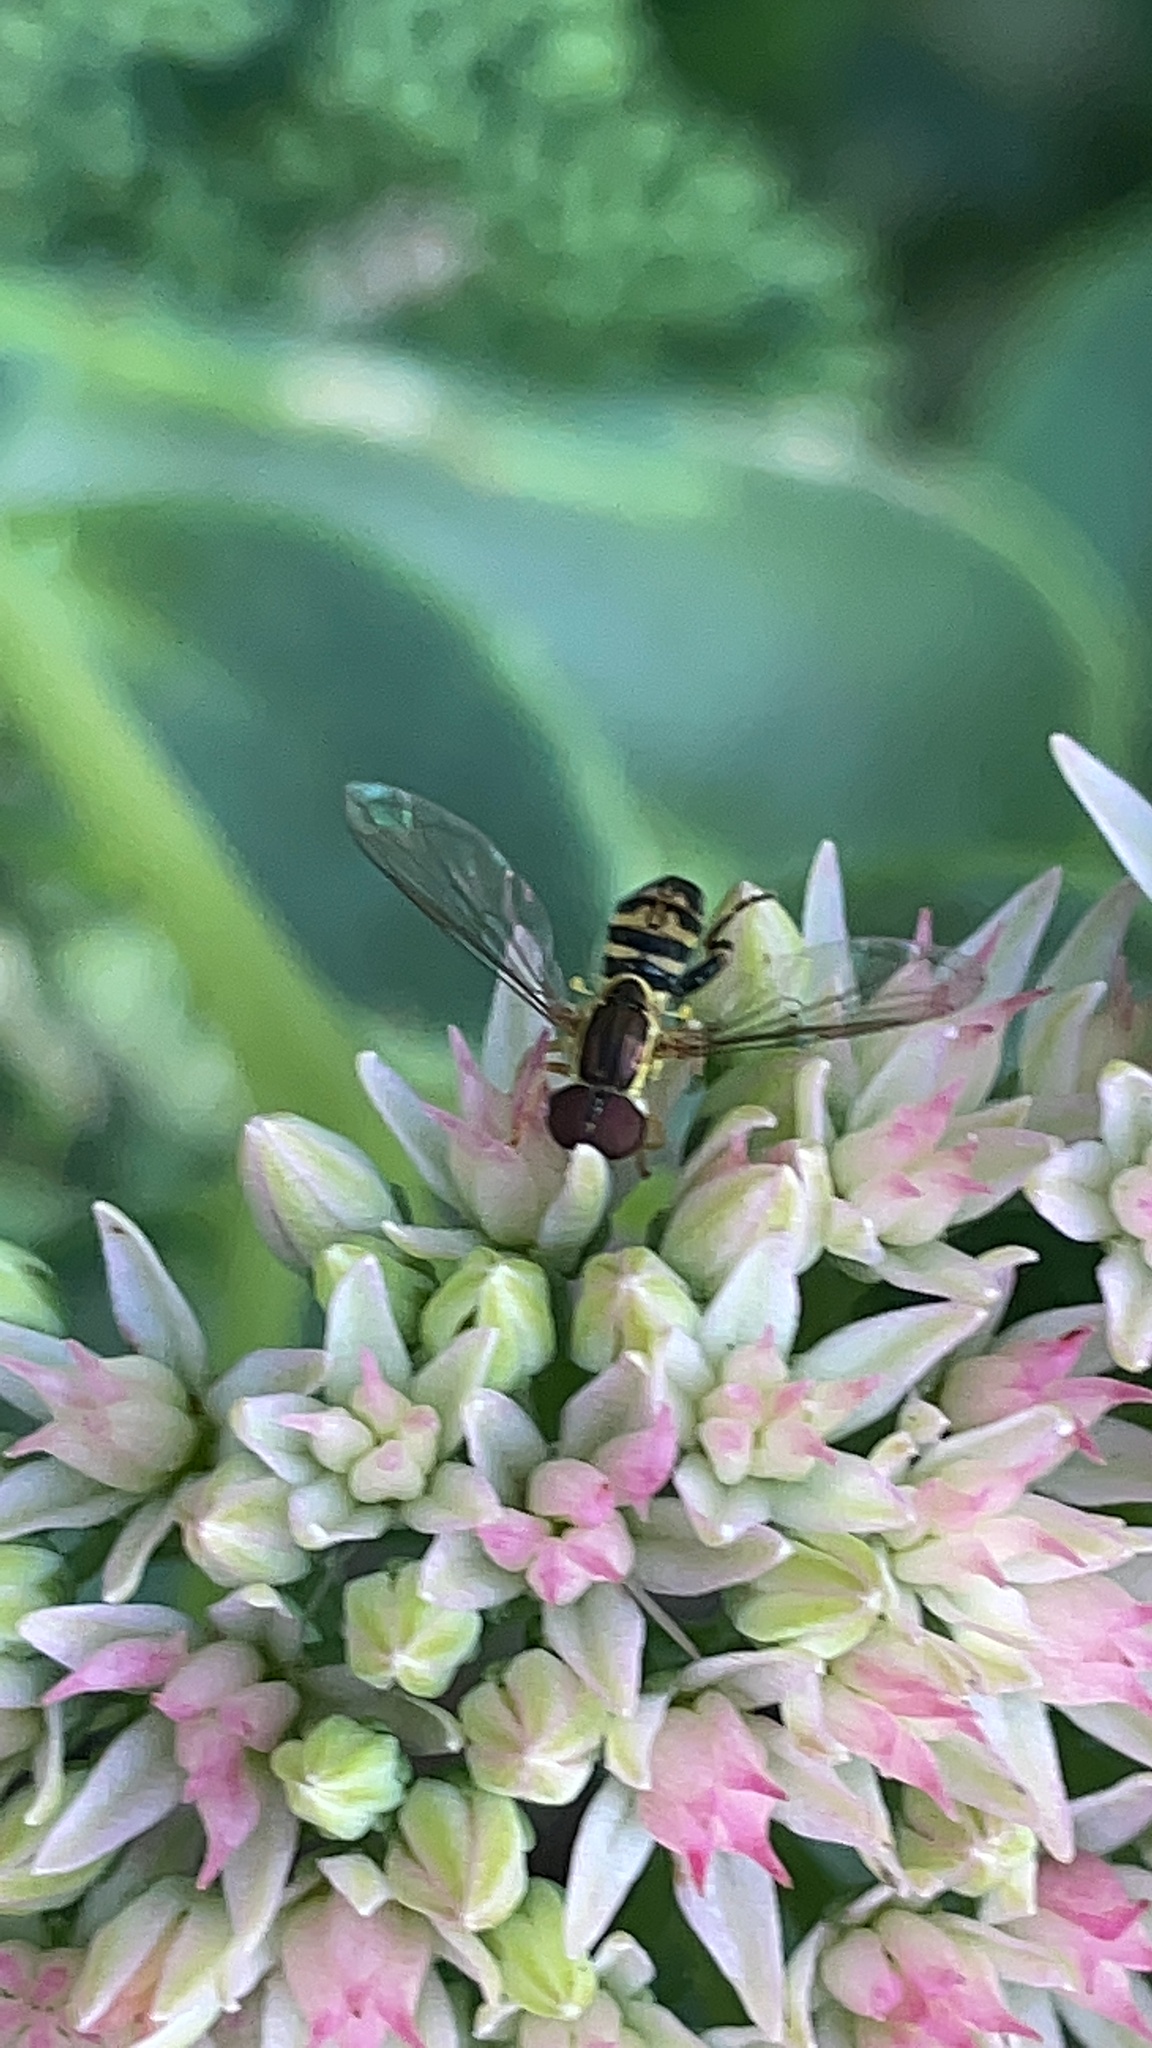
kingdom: Animalia
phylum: Arthropoda
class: Insecta
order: Diptera
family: Syrphidae
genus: Toxomerus
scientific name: Toxomerus geminatus
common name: Eastern calligrapher
